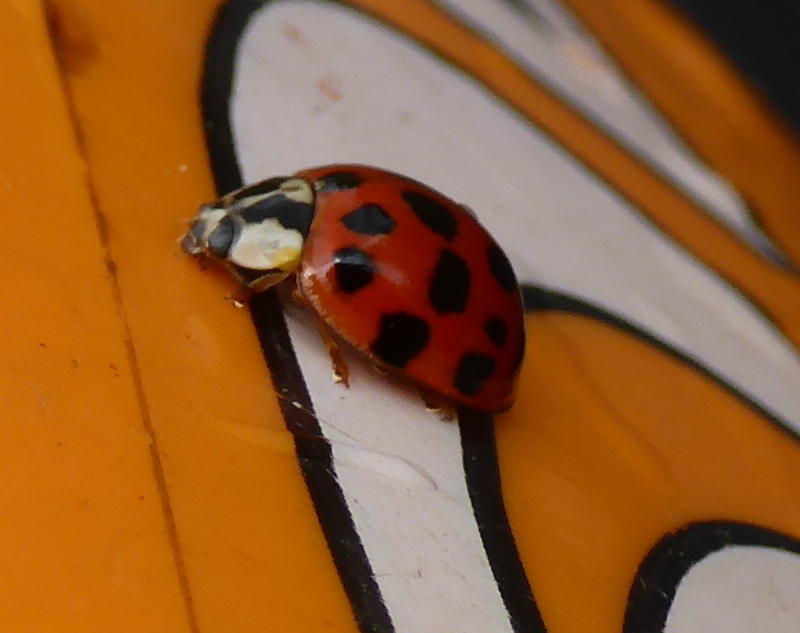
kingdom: Animalia
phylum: Arthropoda
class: Insecta
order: Coleoptera
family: Coccinellidae
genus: Harmonia
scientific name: Harmonia axyridis
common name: Harlequin ladybird
